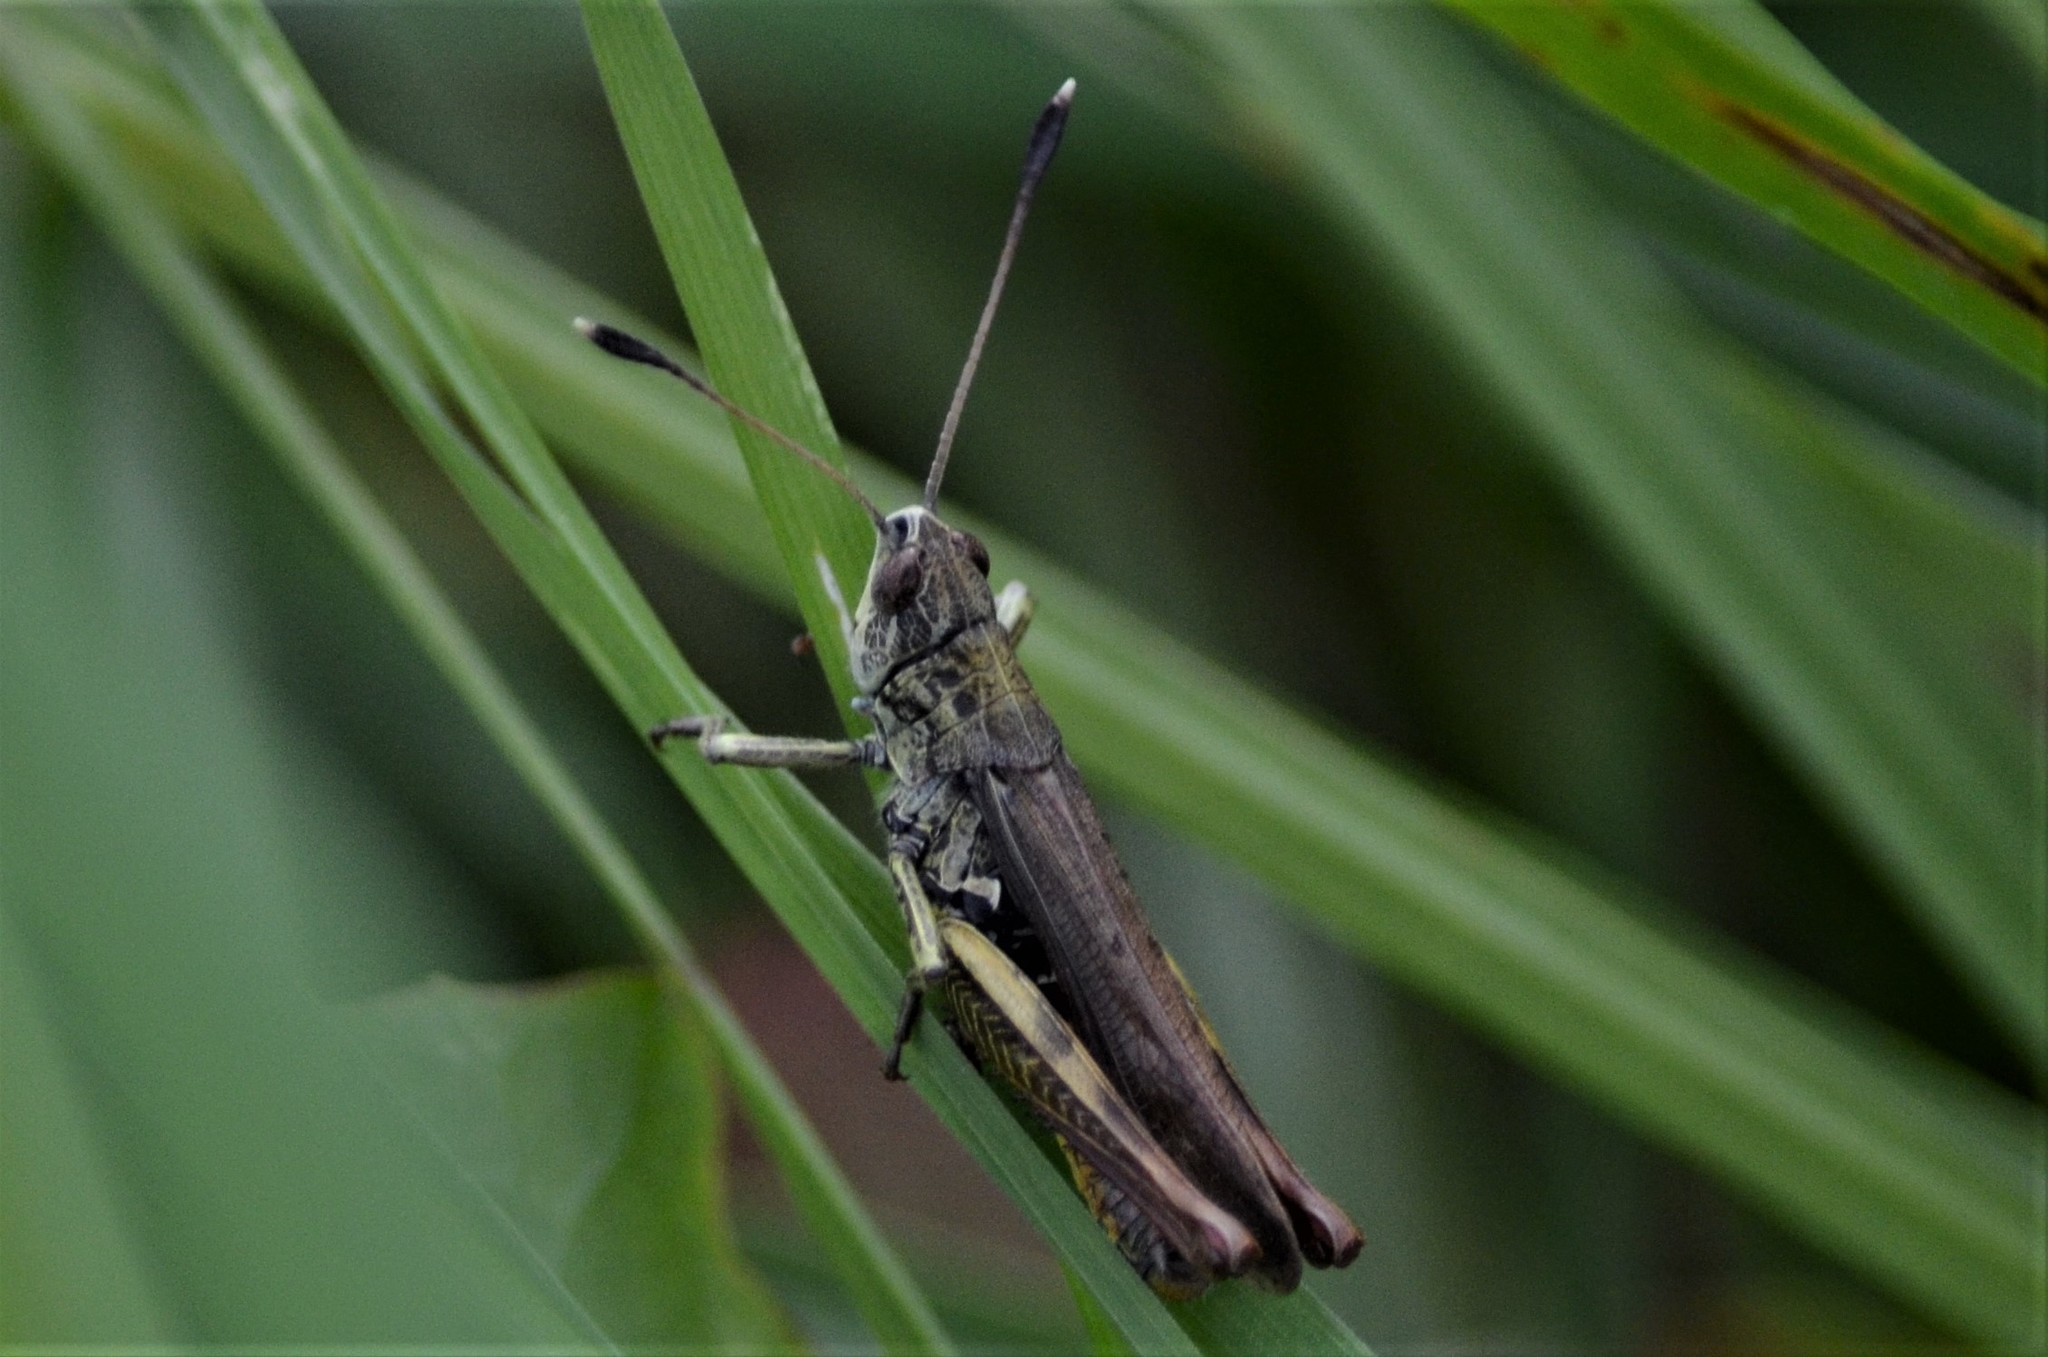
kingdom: Animalia
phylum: Arthropoda
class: Insecta
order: Orthoptera
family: Acrididae
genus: Gomphocerippus
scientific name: Gomphocerippus rufus
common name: Rufous grasshopper
